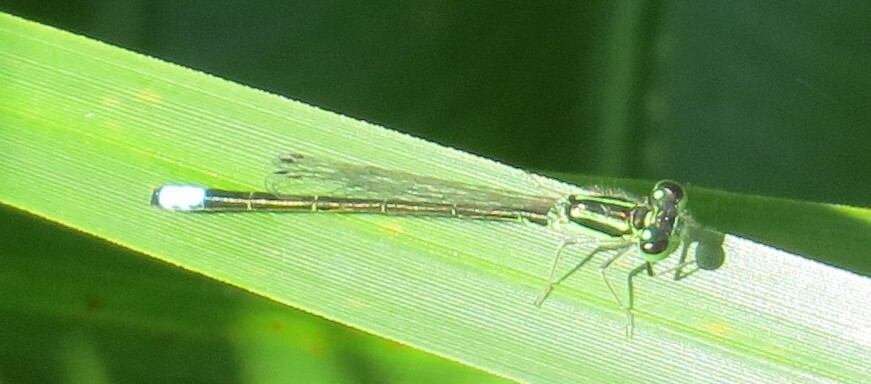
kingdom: Animalia
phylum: Arthropoda
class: Insecta
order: Odonata
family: Coenagrionidae
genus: Ischnura
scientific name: Ischnura verticalis
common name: Eastern forktail
